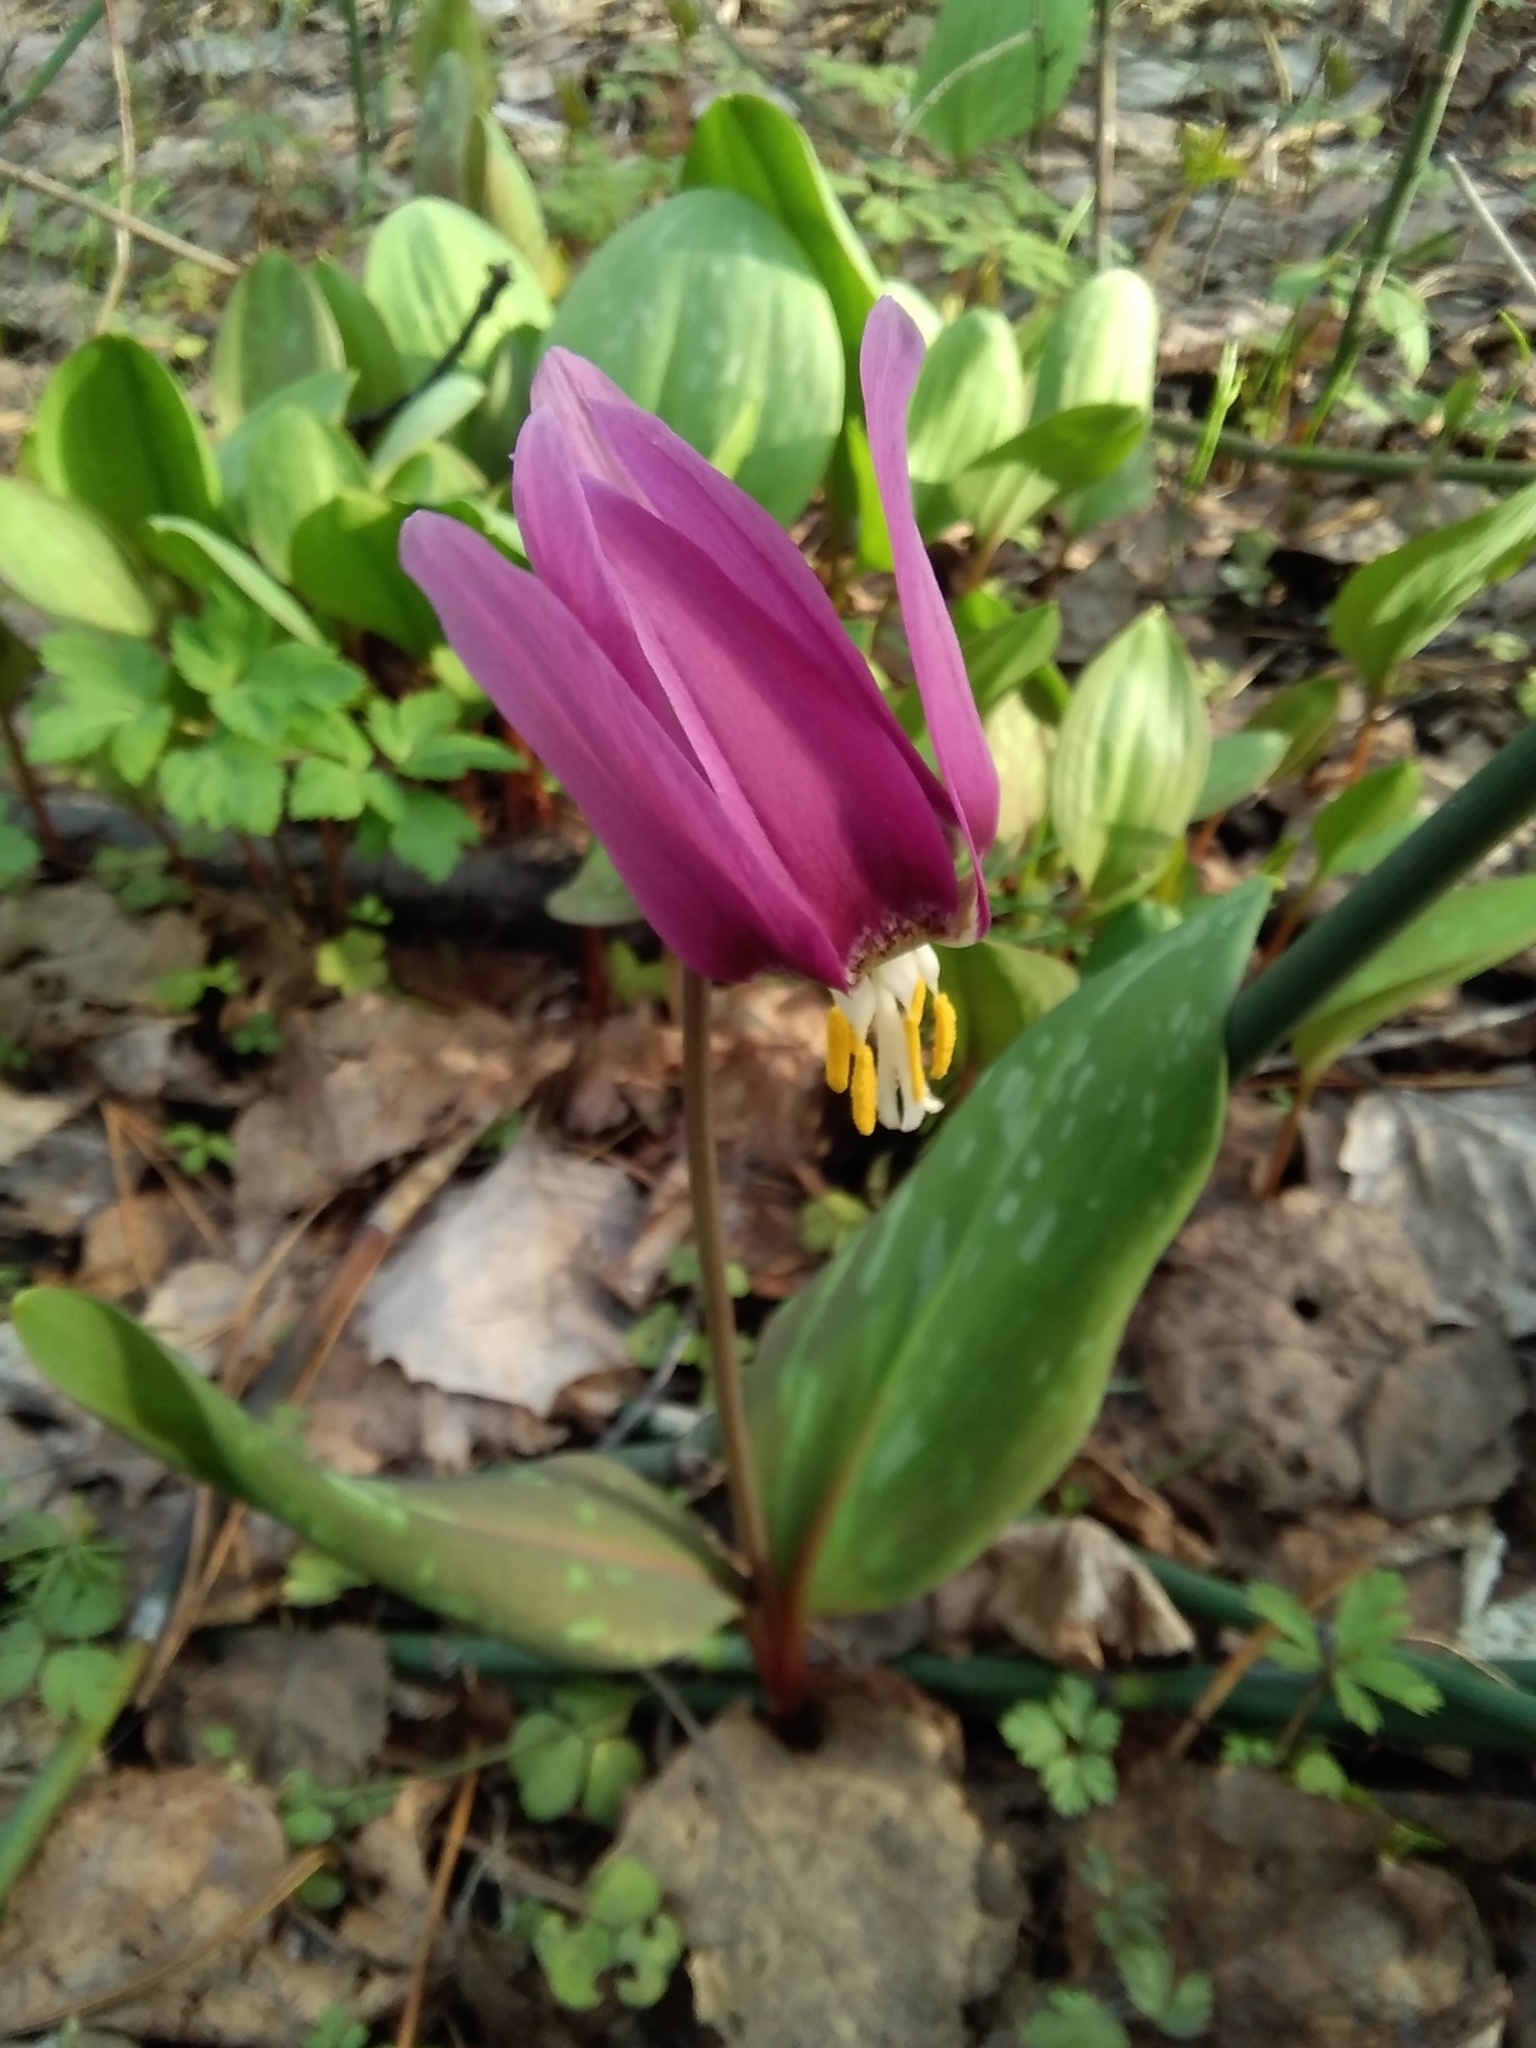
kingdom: Plantae
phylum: Tracheophyta
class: Liliopsida
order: Liliales
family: Liliaceae
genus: Erythronium
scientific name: Erythronium sibiricum
